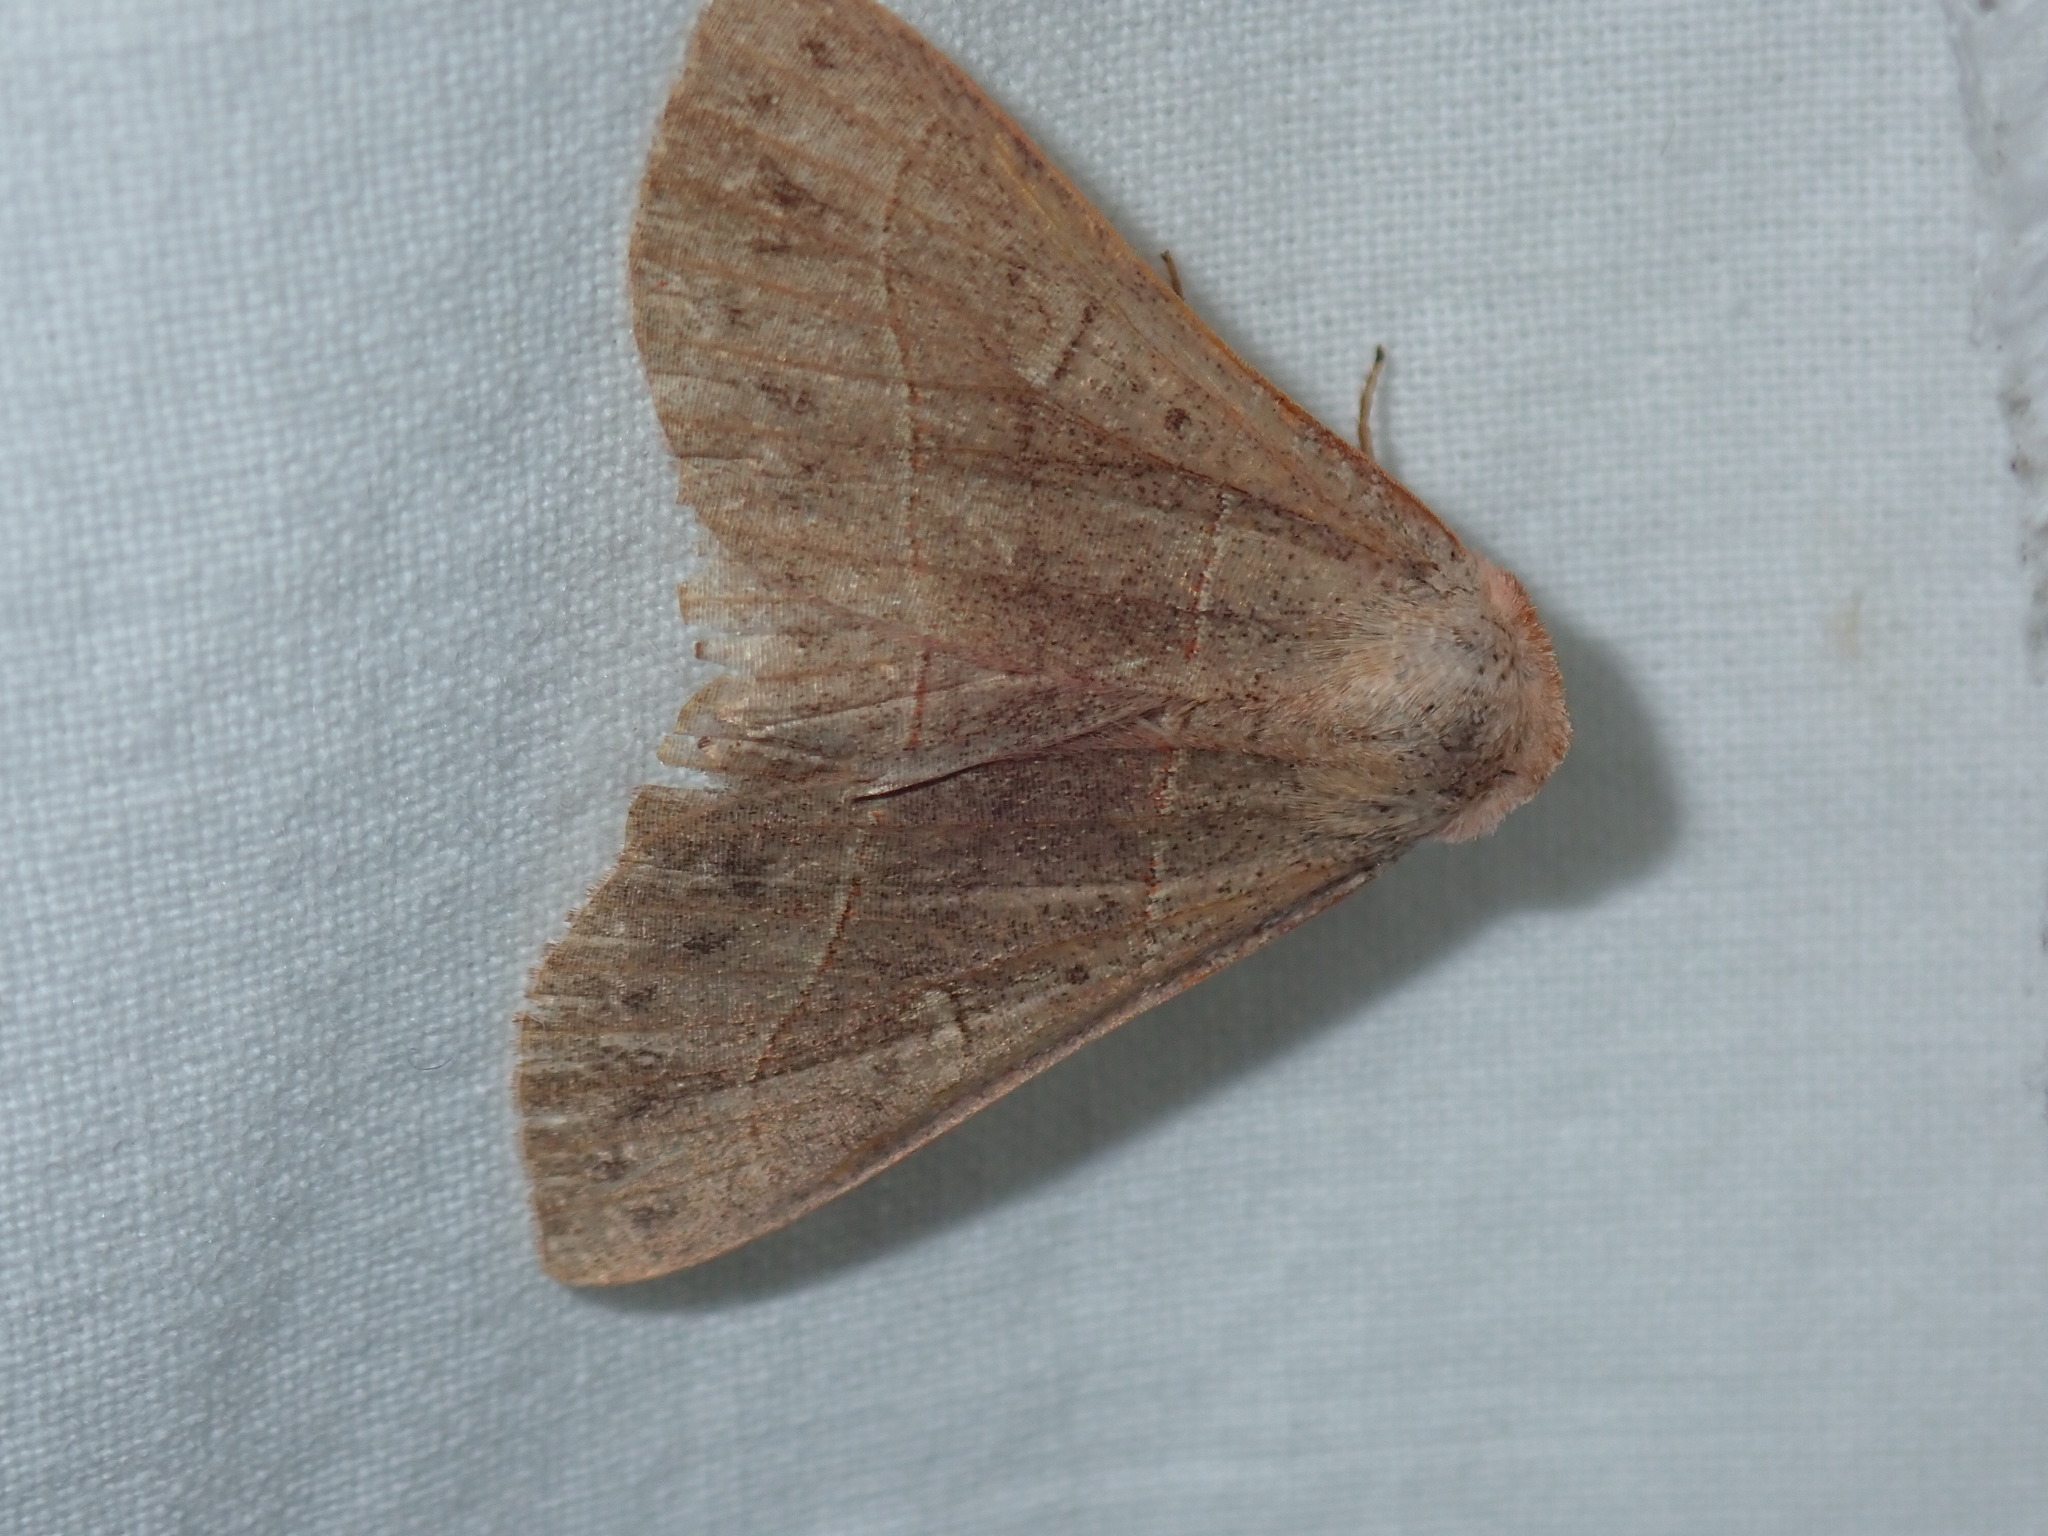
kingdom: Animalia
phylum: Arthropoda
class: Insecta
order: Lepidoptera
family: Erebidae
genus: Panopoda
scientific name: Panopoda rufimargo
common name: Red-lined panopoda moth
